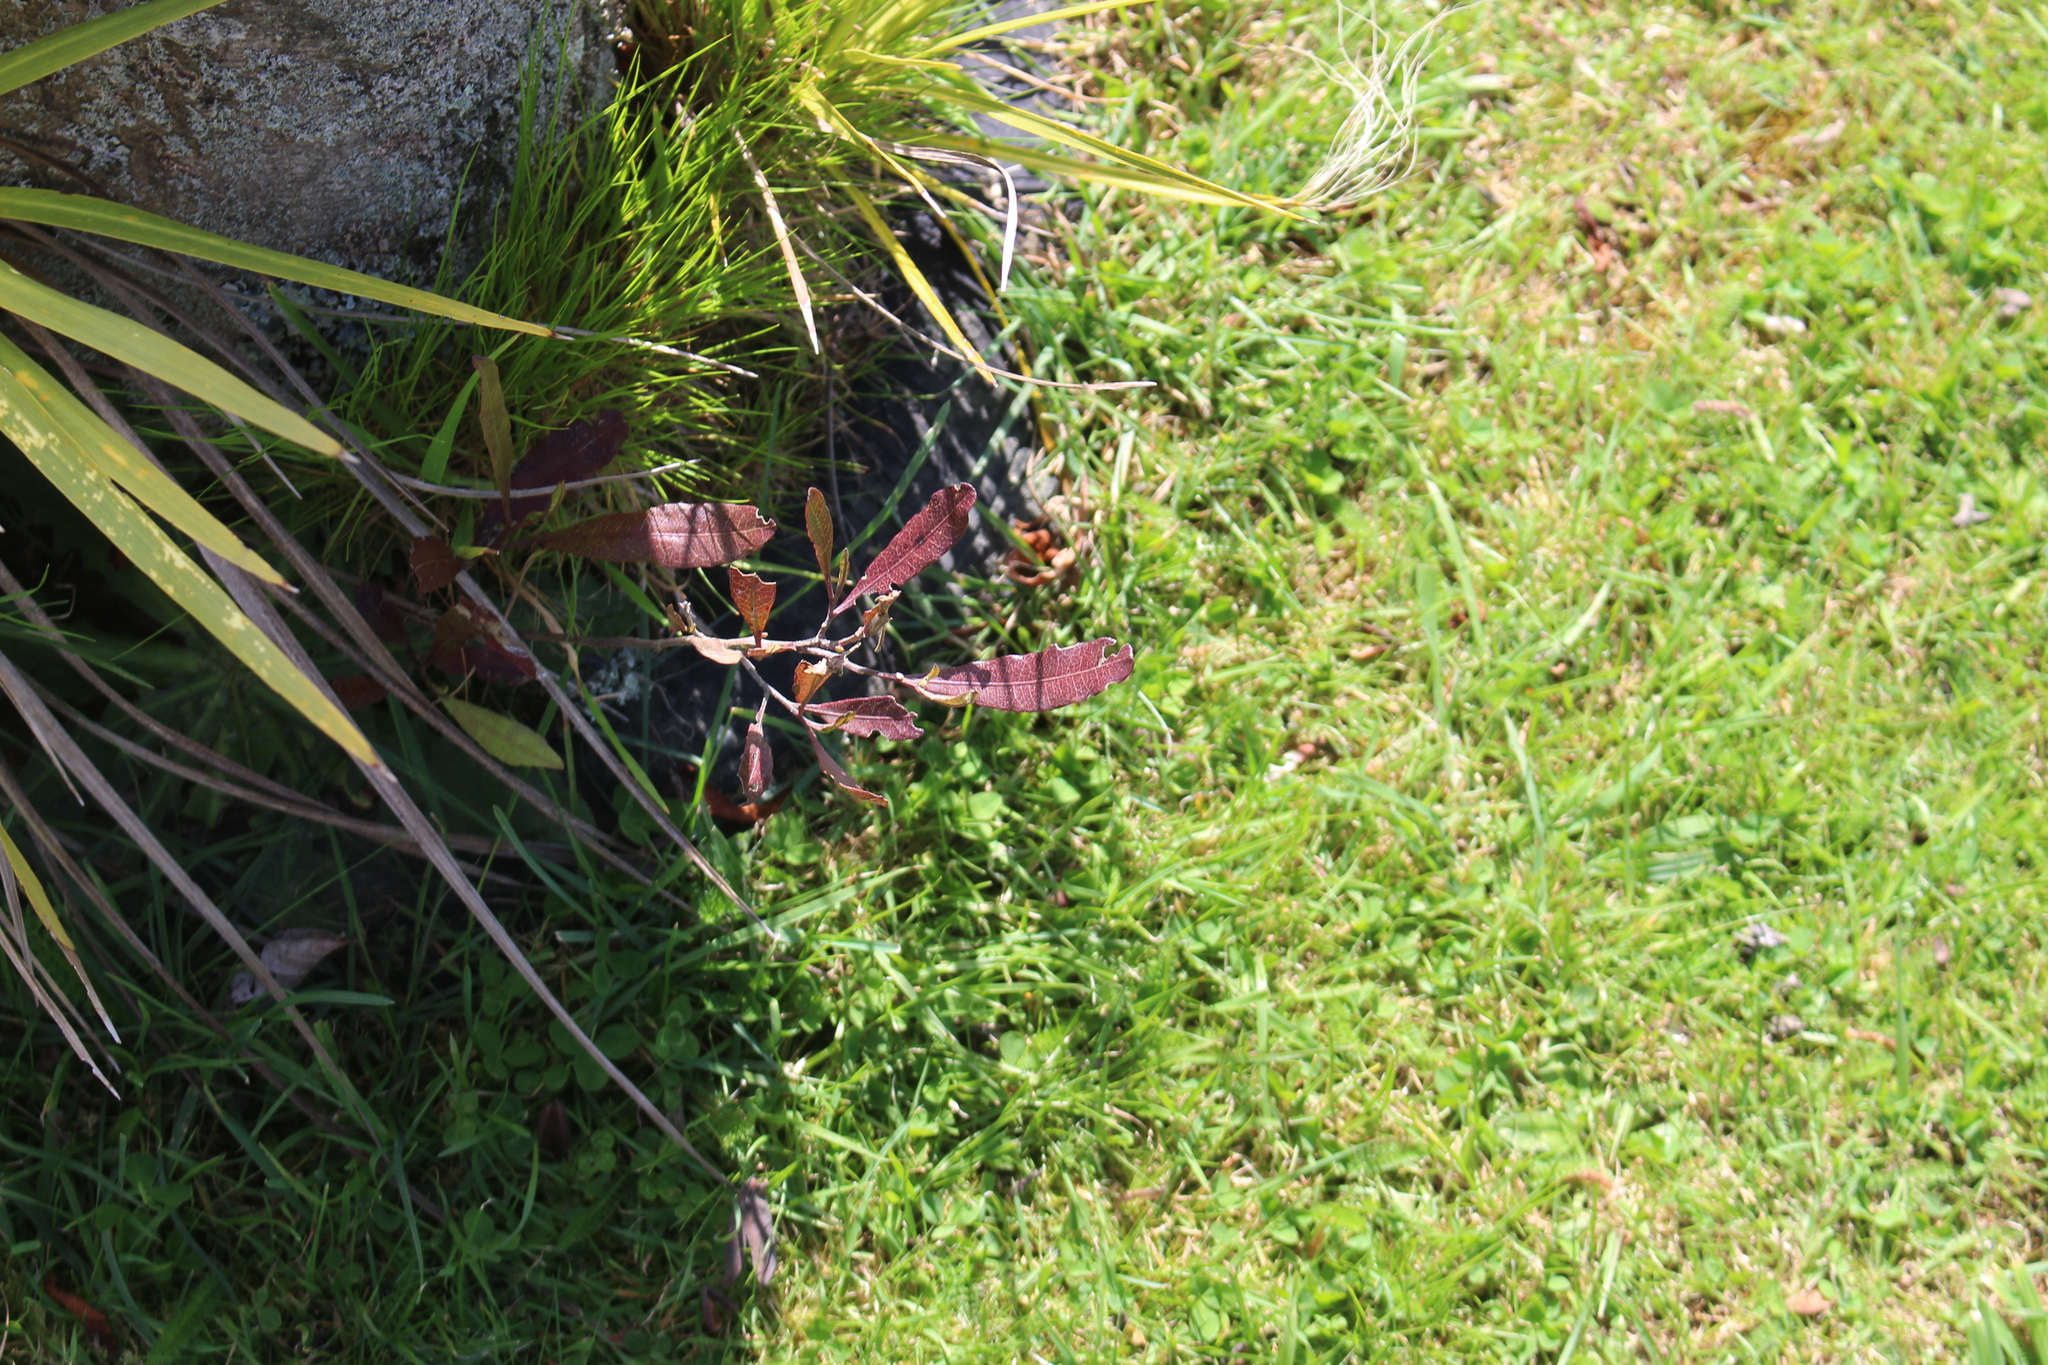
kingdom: Plantae
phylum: Tracheophyta
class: Magnoliopsida
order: Sapindales
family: Sapindaceae
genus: Dodonaea
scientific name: Dodonaea viscosa
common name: Hopbush
